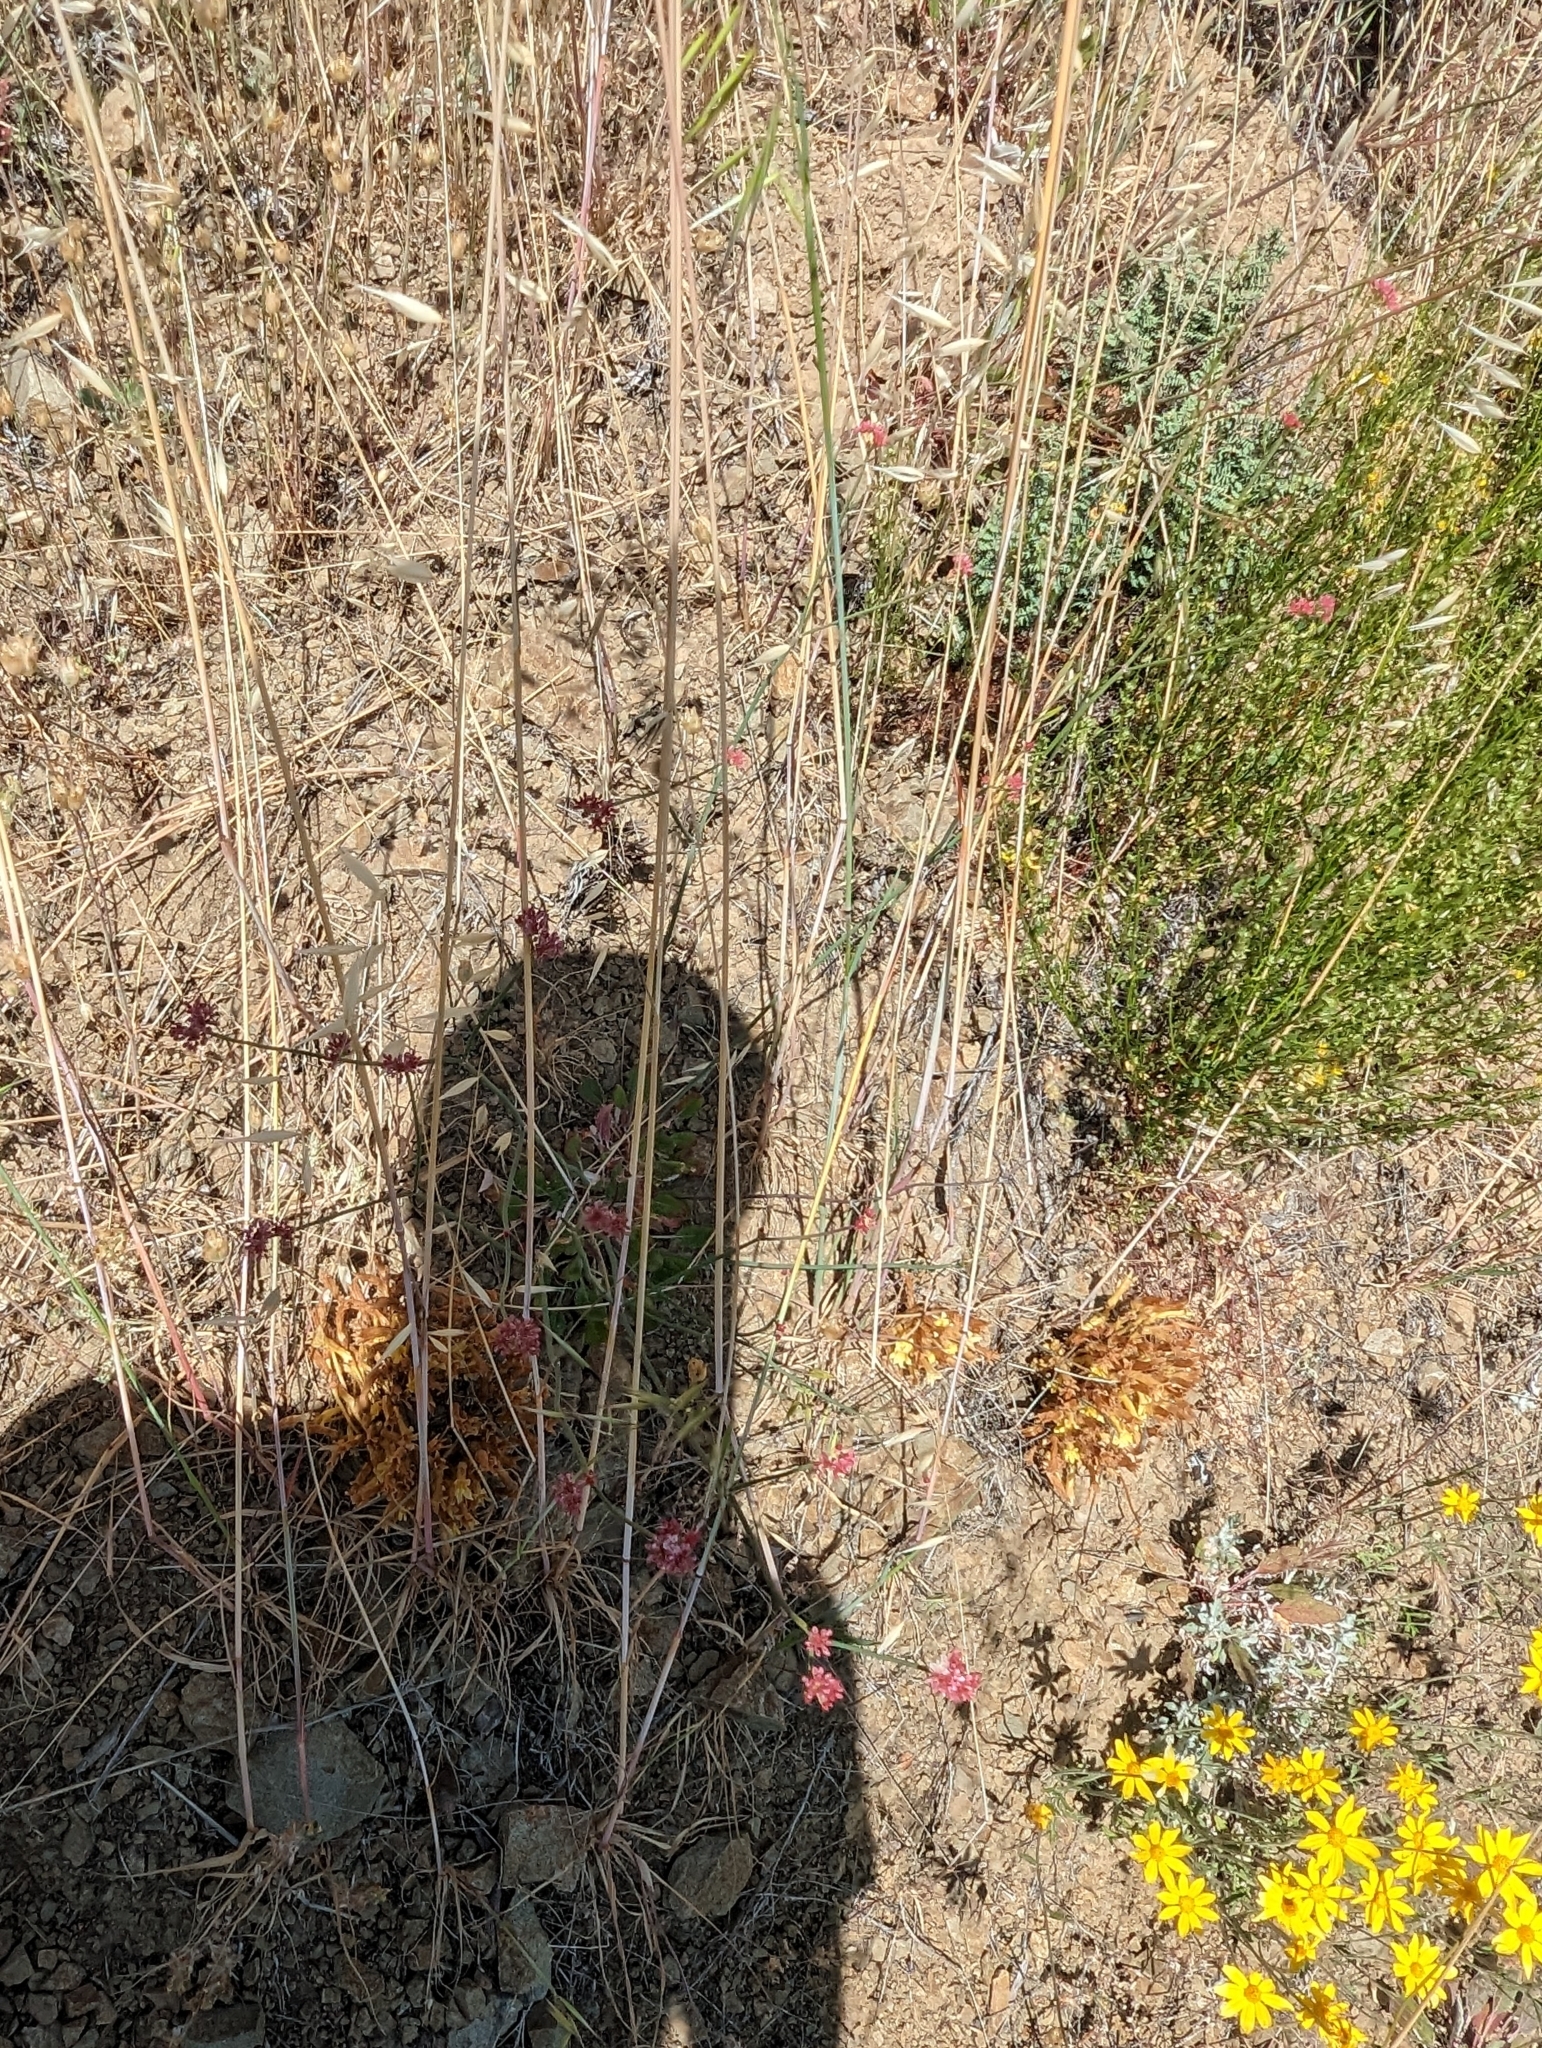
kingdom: Plantae
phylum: Tracheophyta
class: Magnoliopsida
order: Lamiales
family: Orobanchaceae
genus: Aphyllon
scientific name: Aphyllon franciscanum
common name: San francisco broomrape
